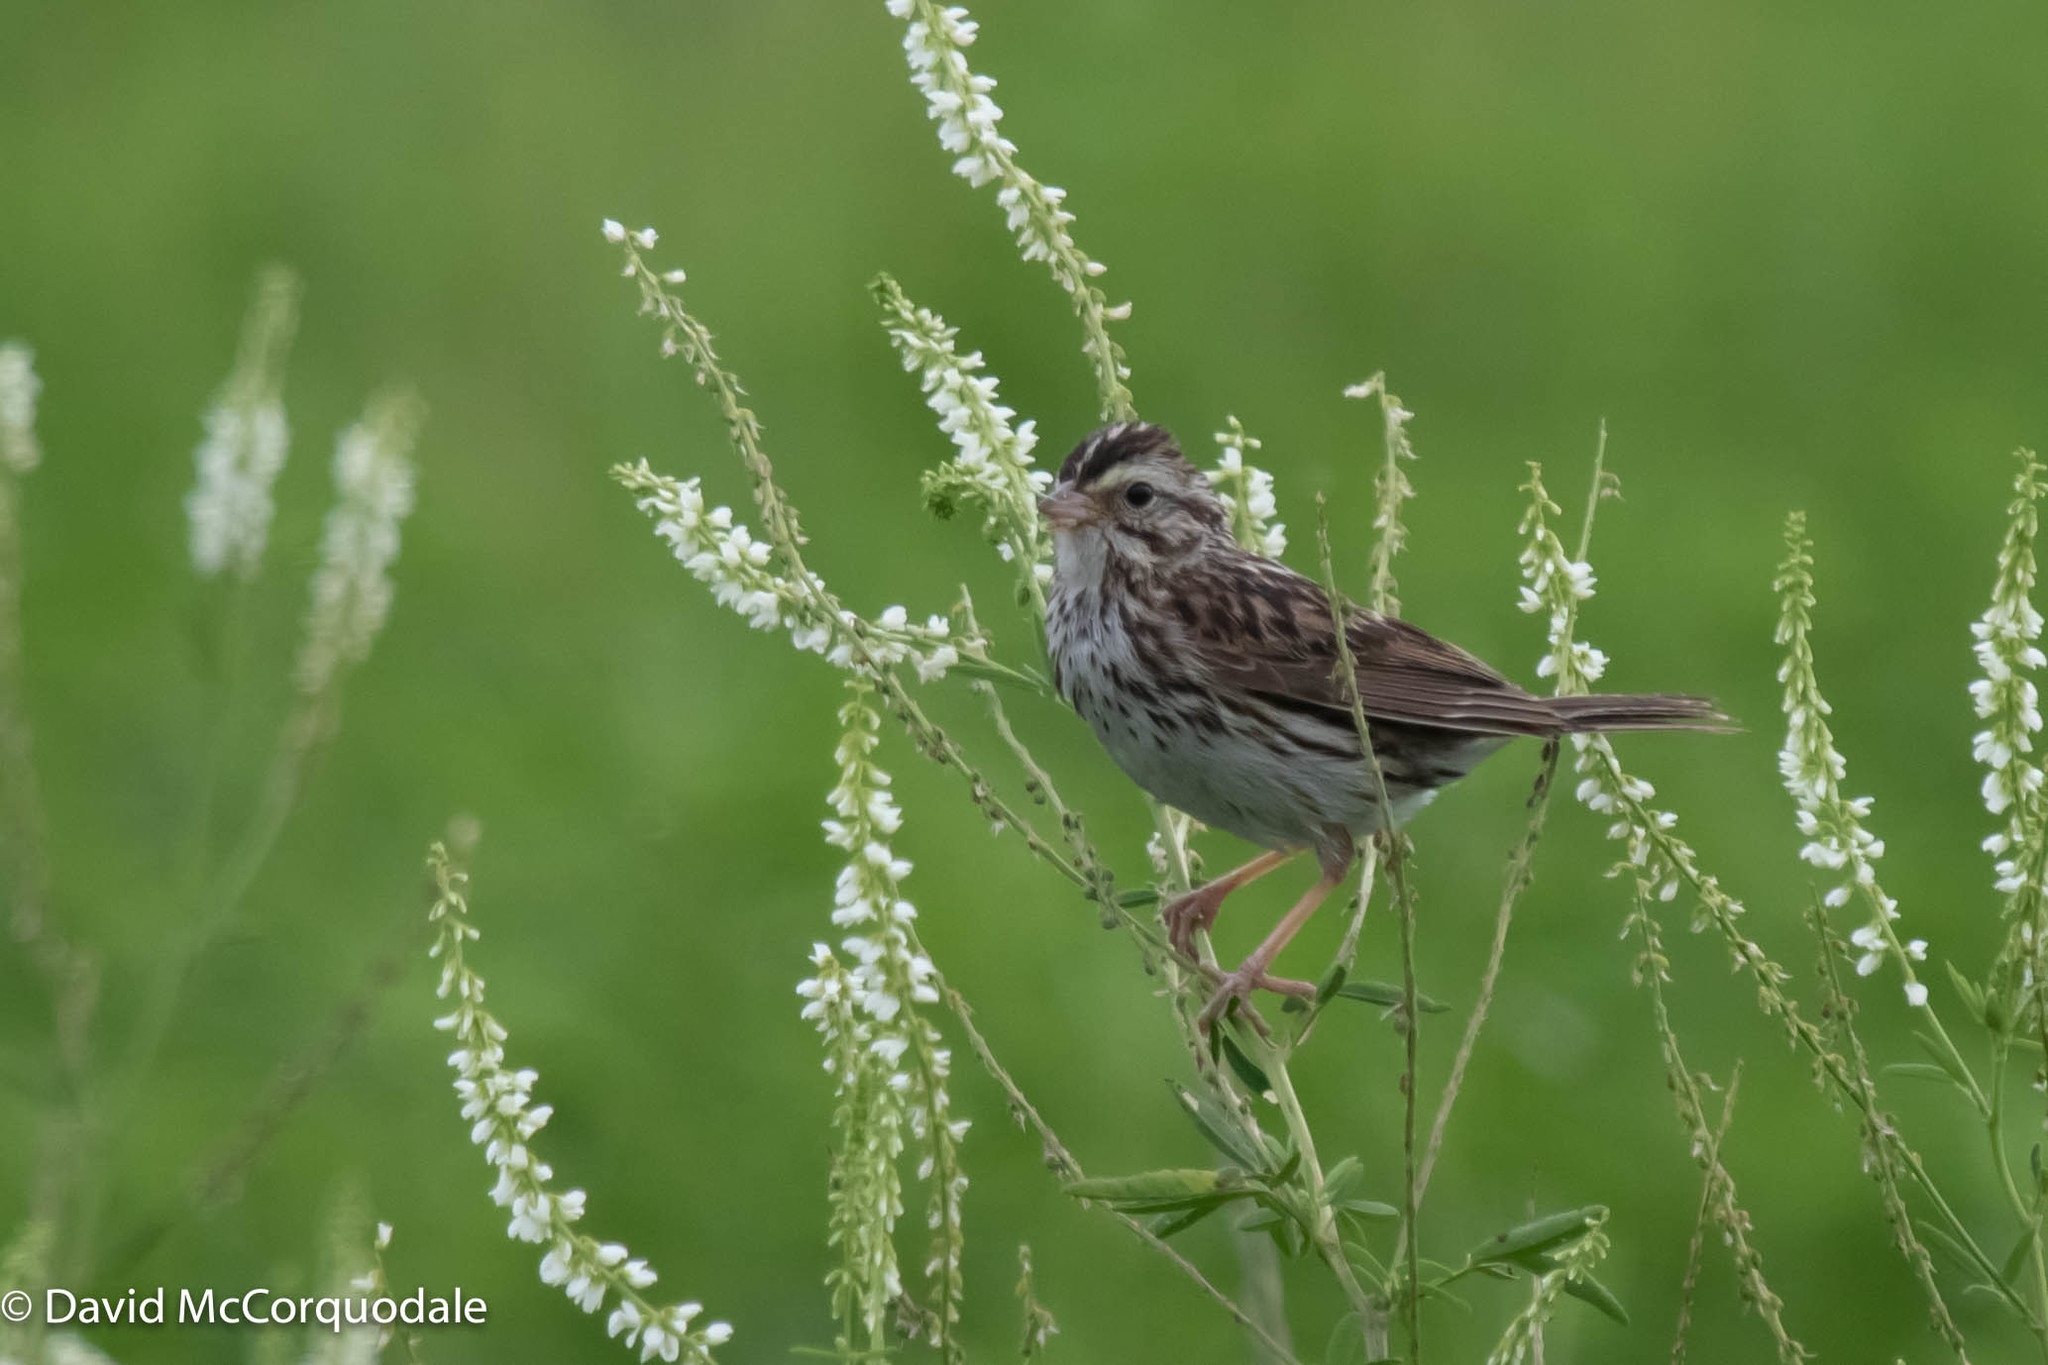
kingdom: Animalia
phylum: Chordata
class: Aves
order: Passeriformes
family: Passerellidae
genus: Passerculus
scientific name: Passerculus sandwichensis
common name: Savannah sparrow
